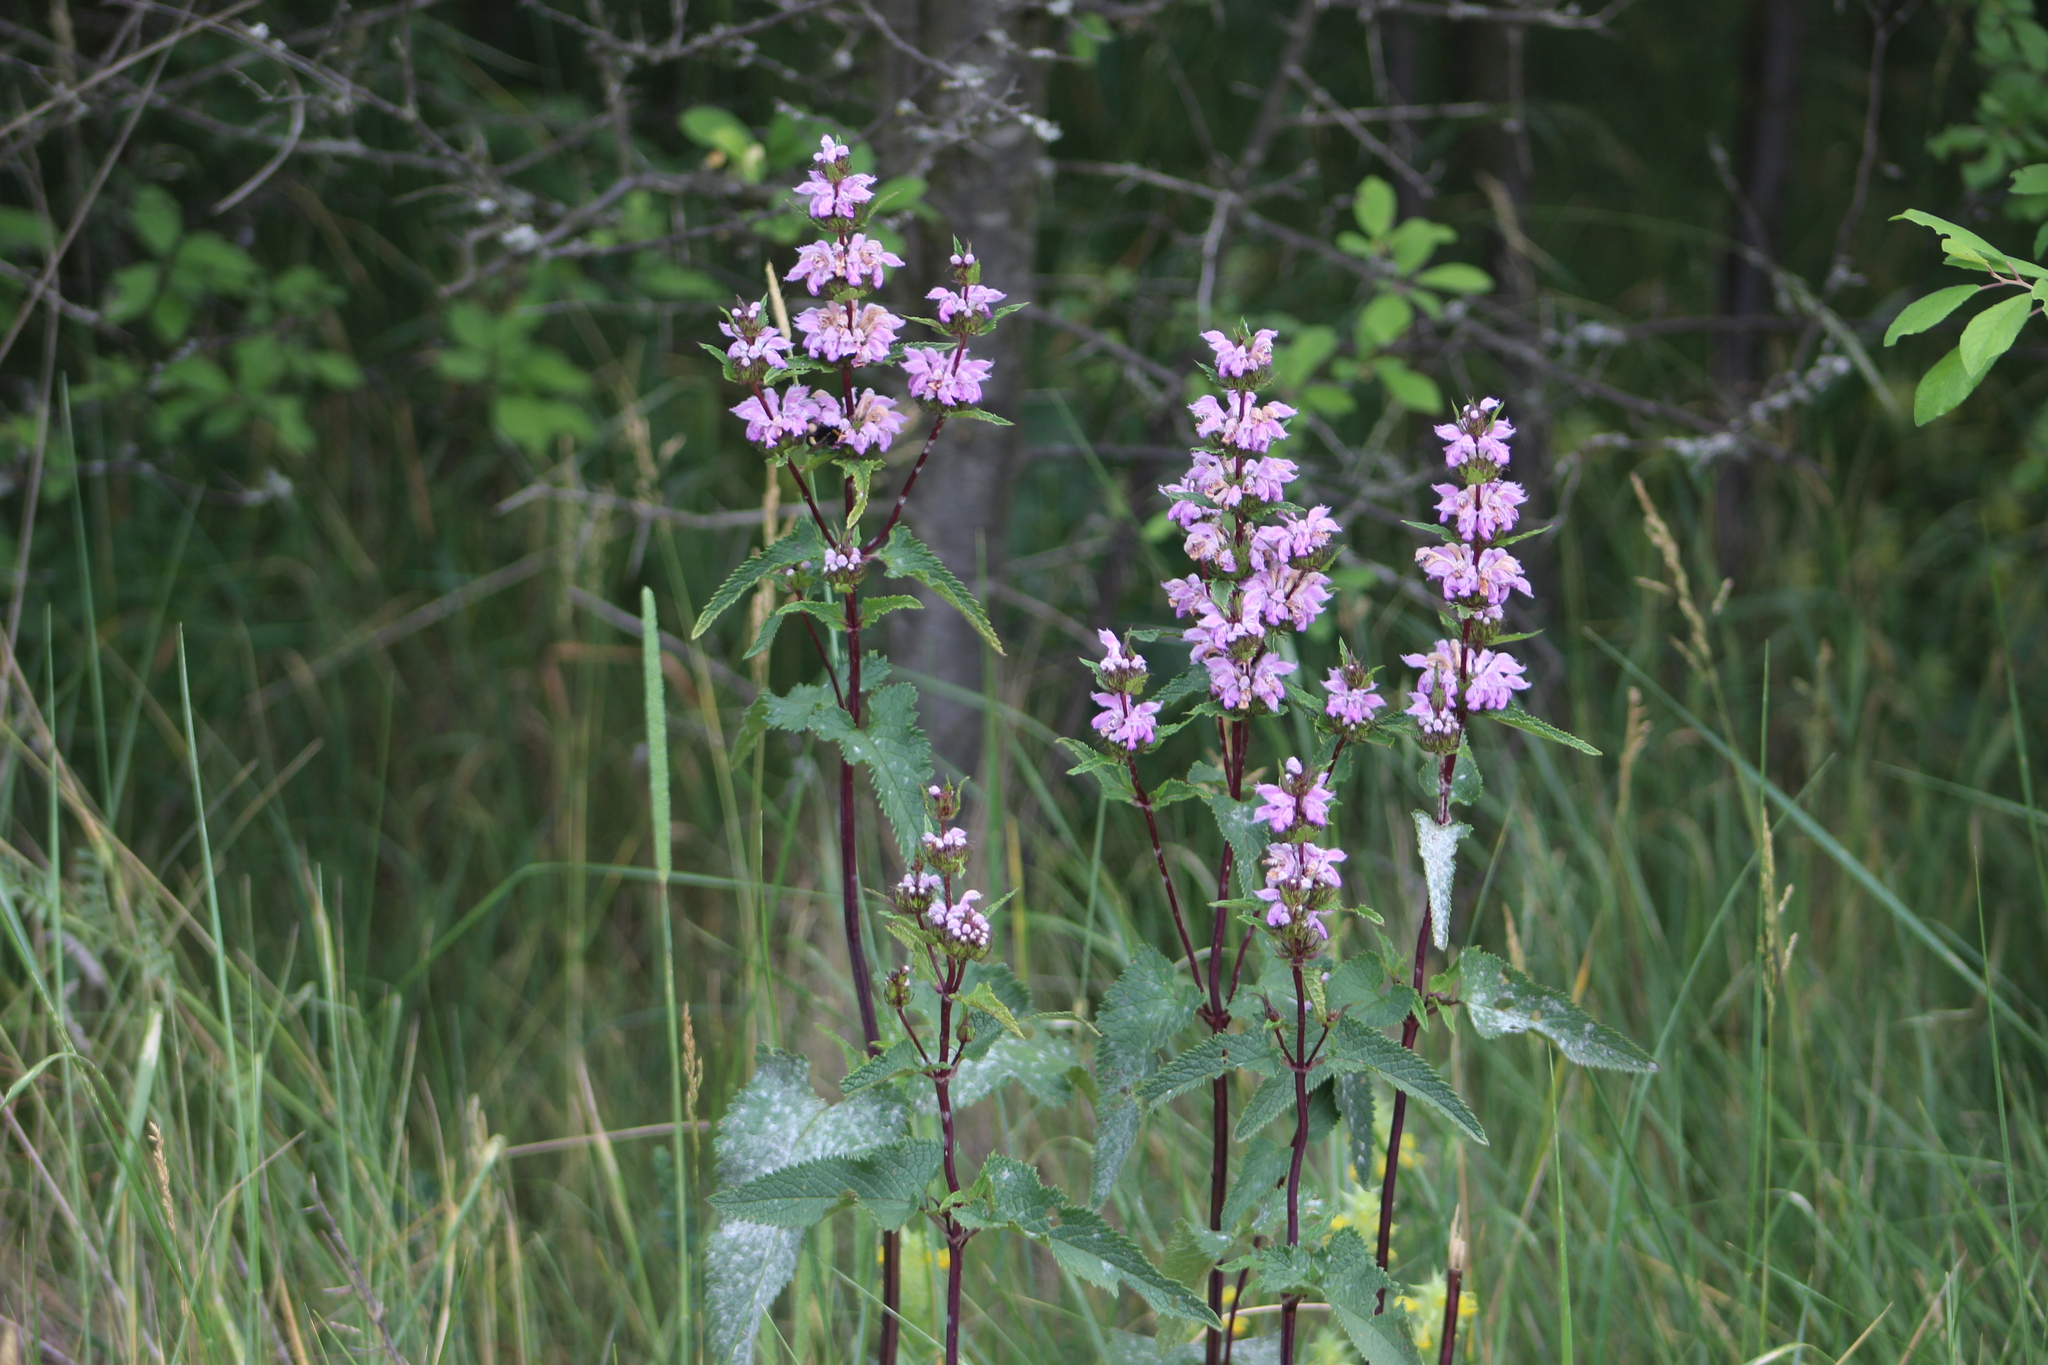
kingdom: Plantae
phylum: Tracheophyta
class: Magnoliopsida
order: Lamiales
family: Lamiaceae
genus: Phlomoides
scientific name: Phlomoides tuberosa
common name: Tuberous jerusalem sage
